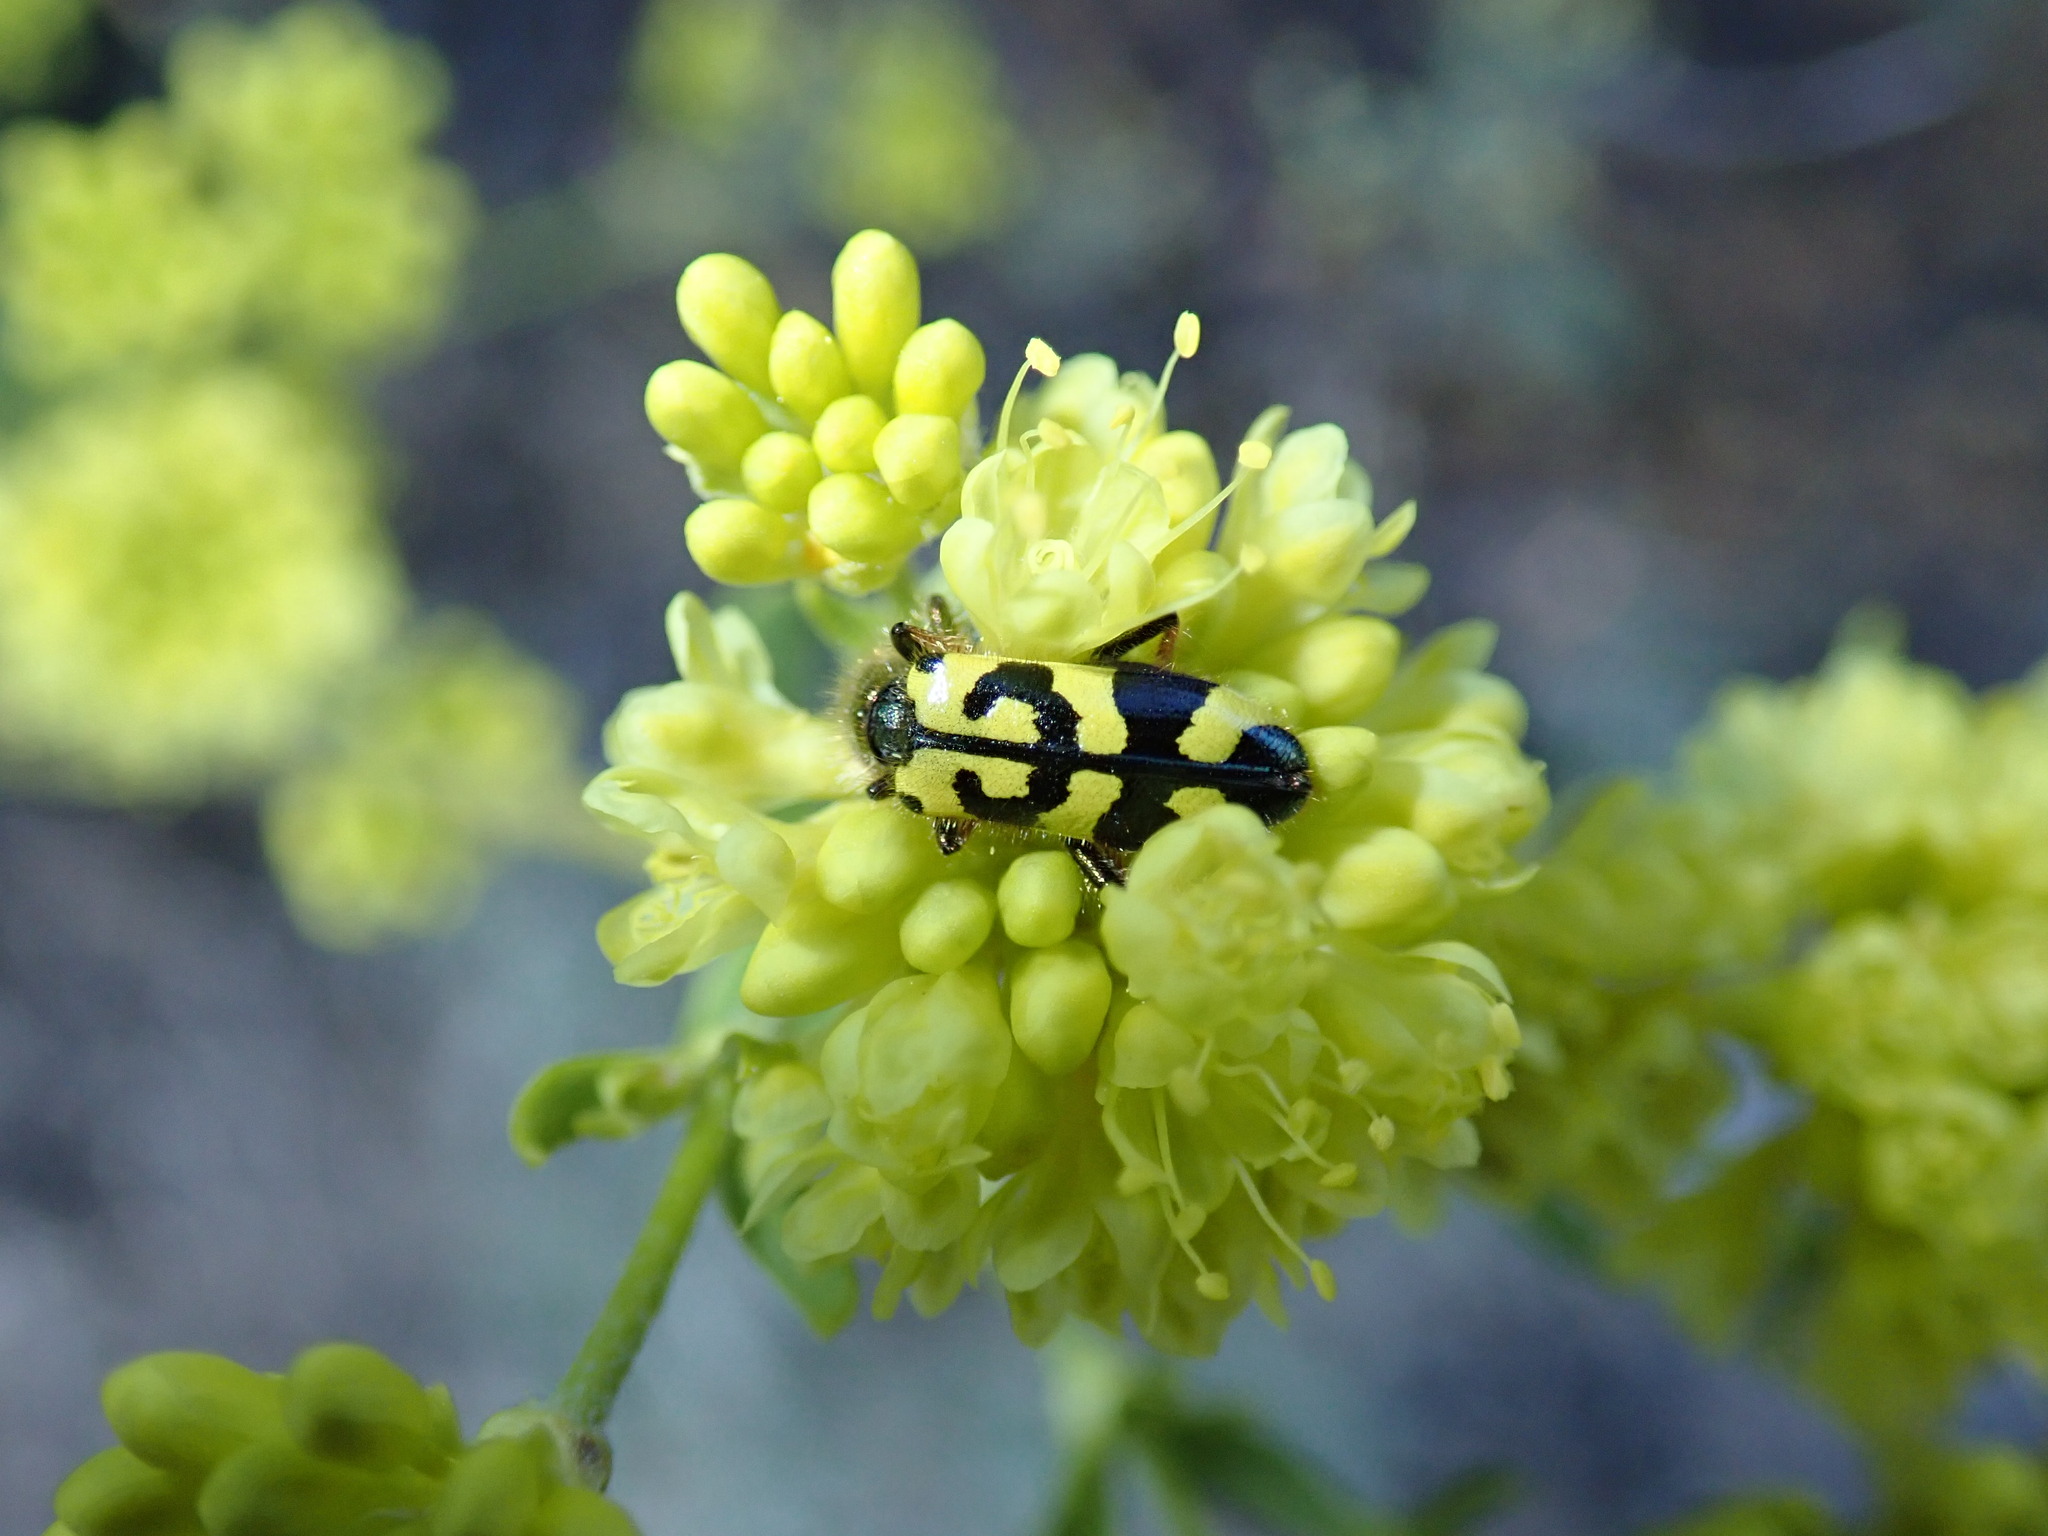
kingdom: Animalia
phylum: Arthropoda
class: Insecta
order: Coleoptera
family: Cleridae
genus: Trichodes
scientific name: Trichodes ornatus
